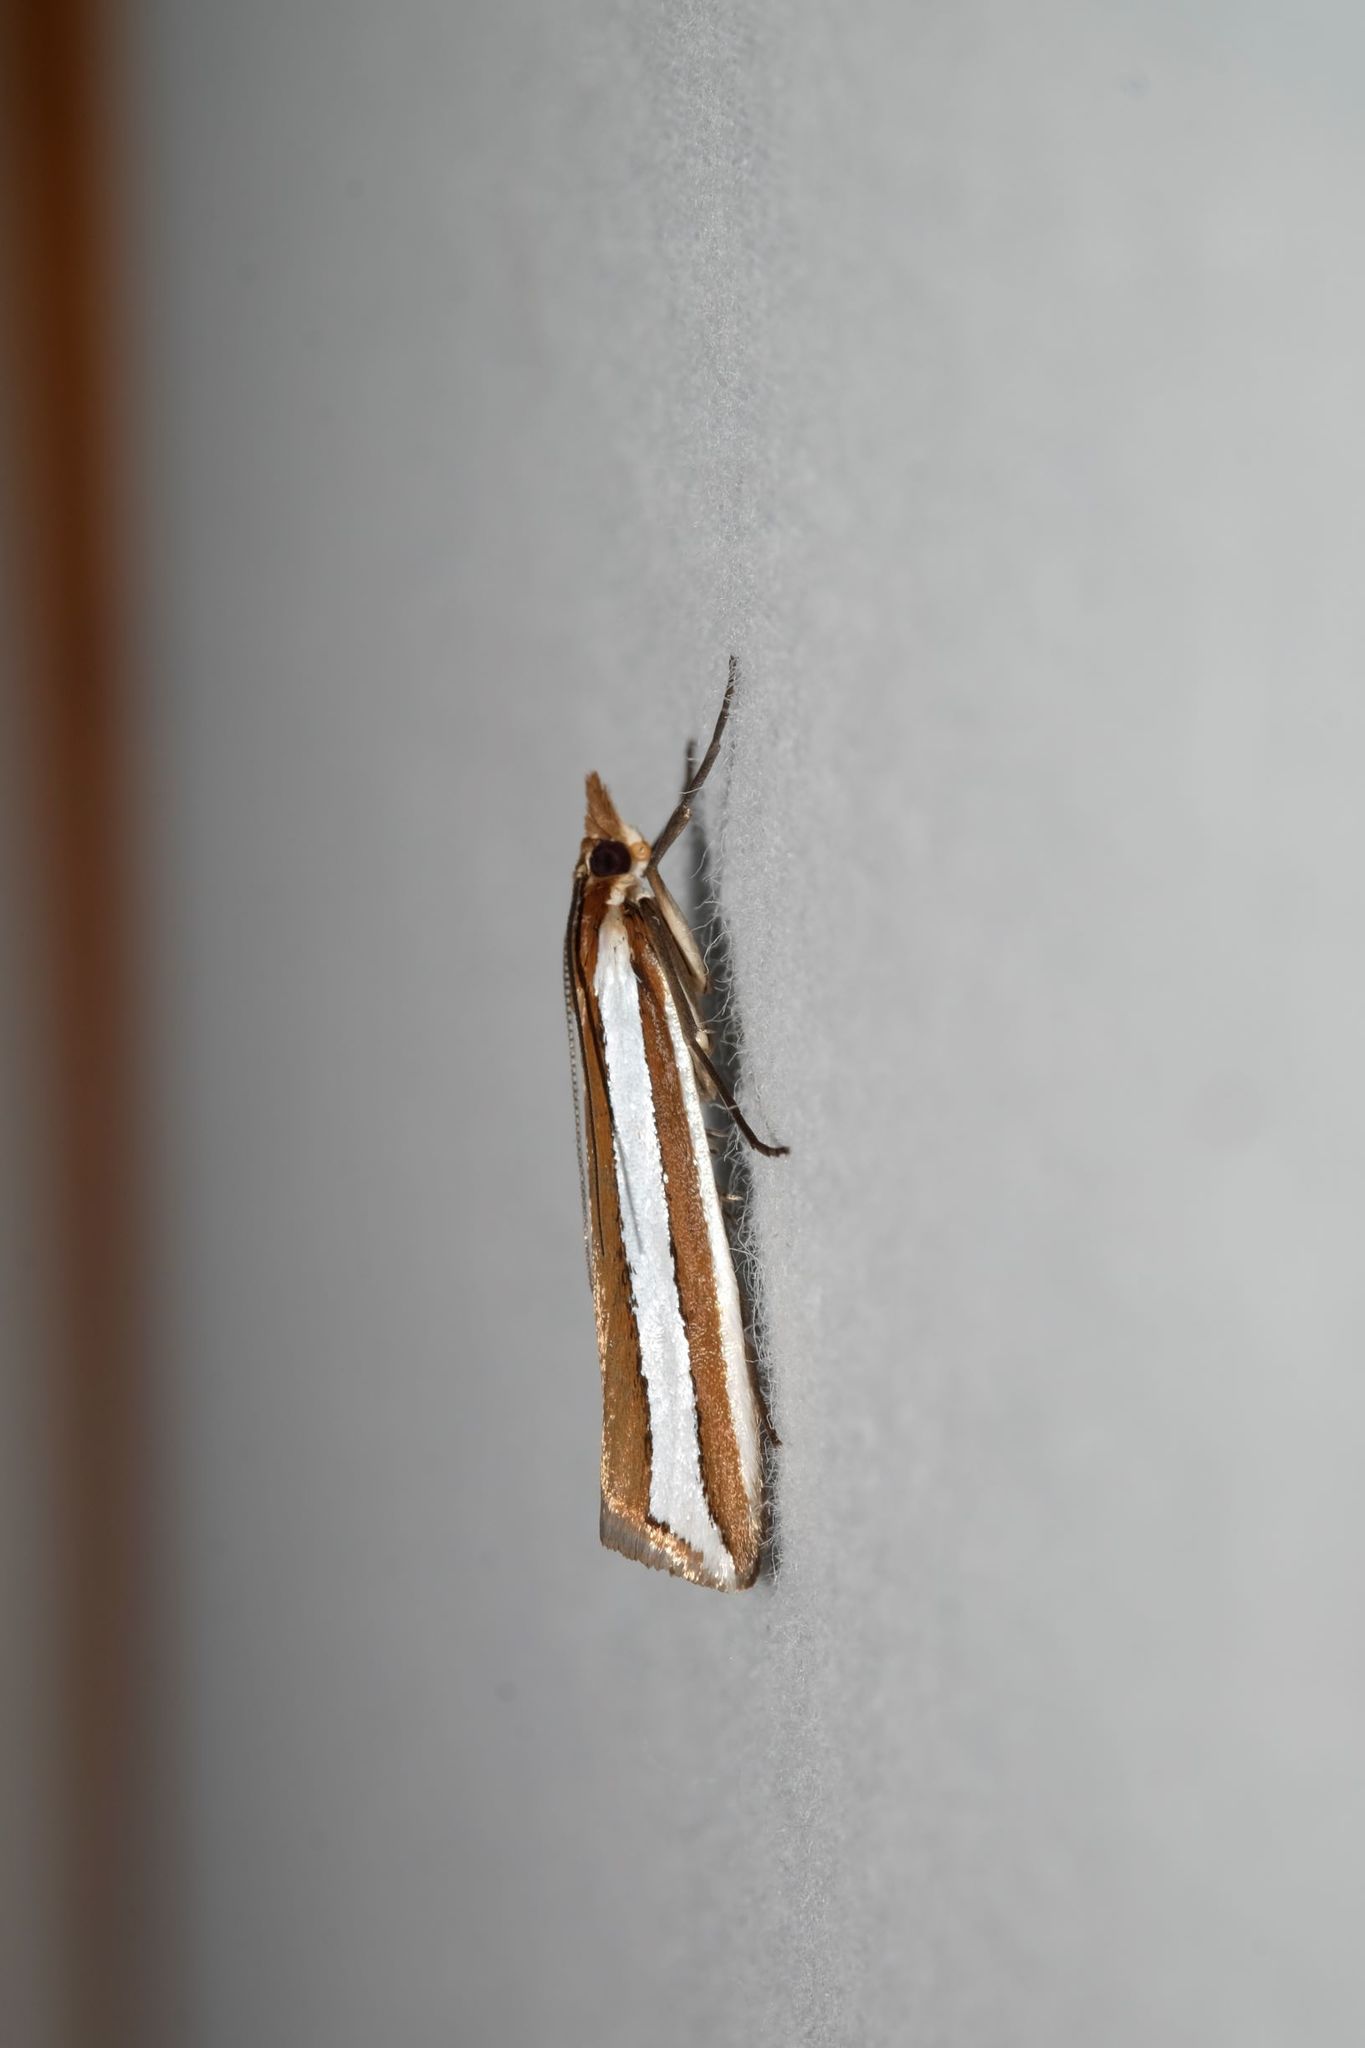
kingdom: Animalia
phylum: Arthropoda
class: Insecta
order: Lepidoptera
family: Crambidae
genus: Corynophora
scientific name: Corynophora lativittalis
